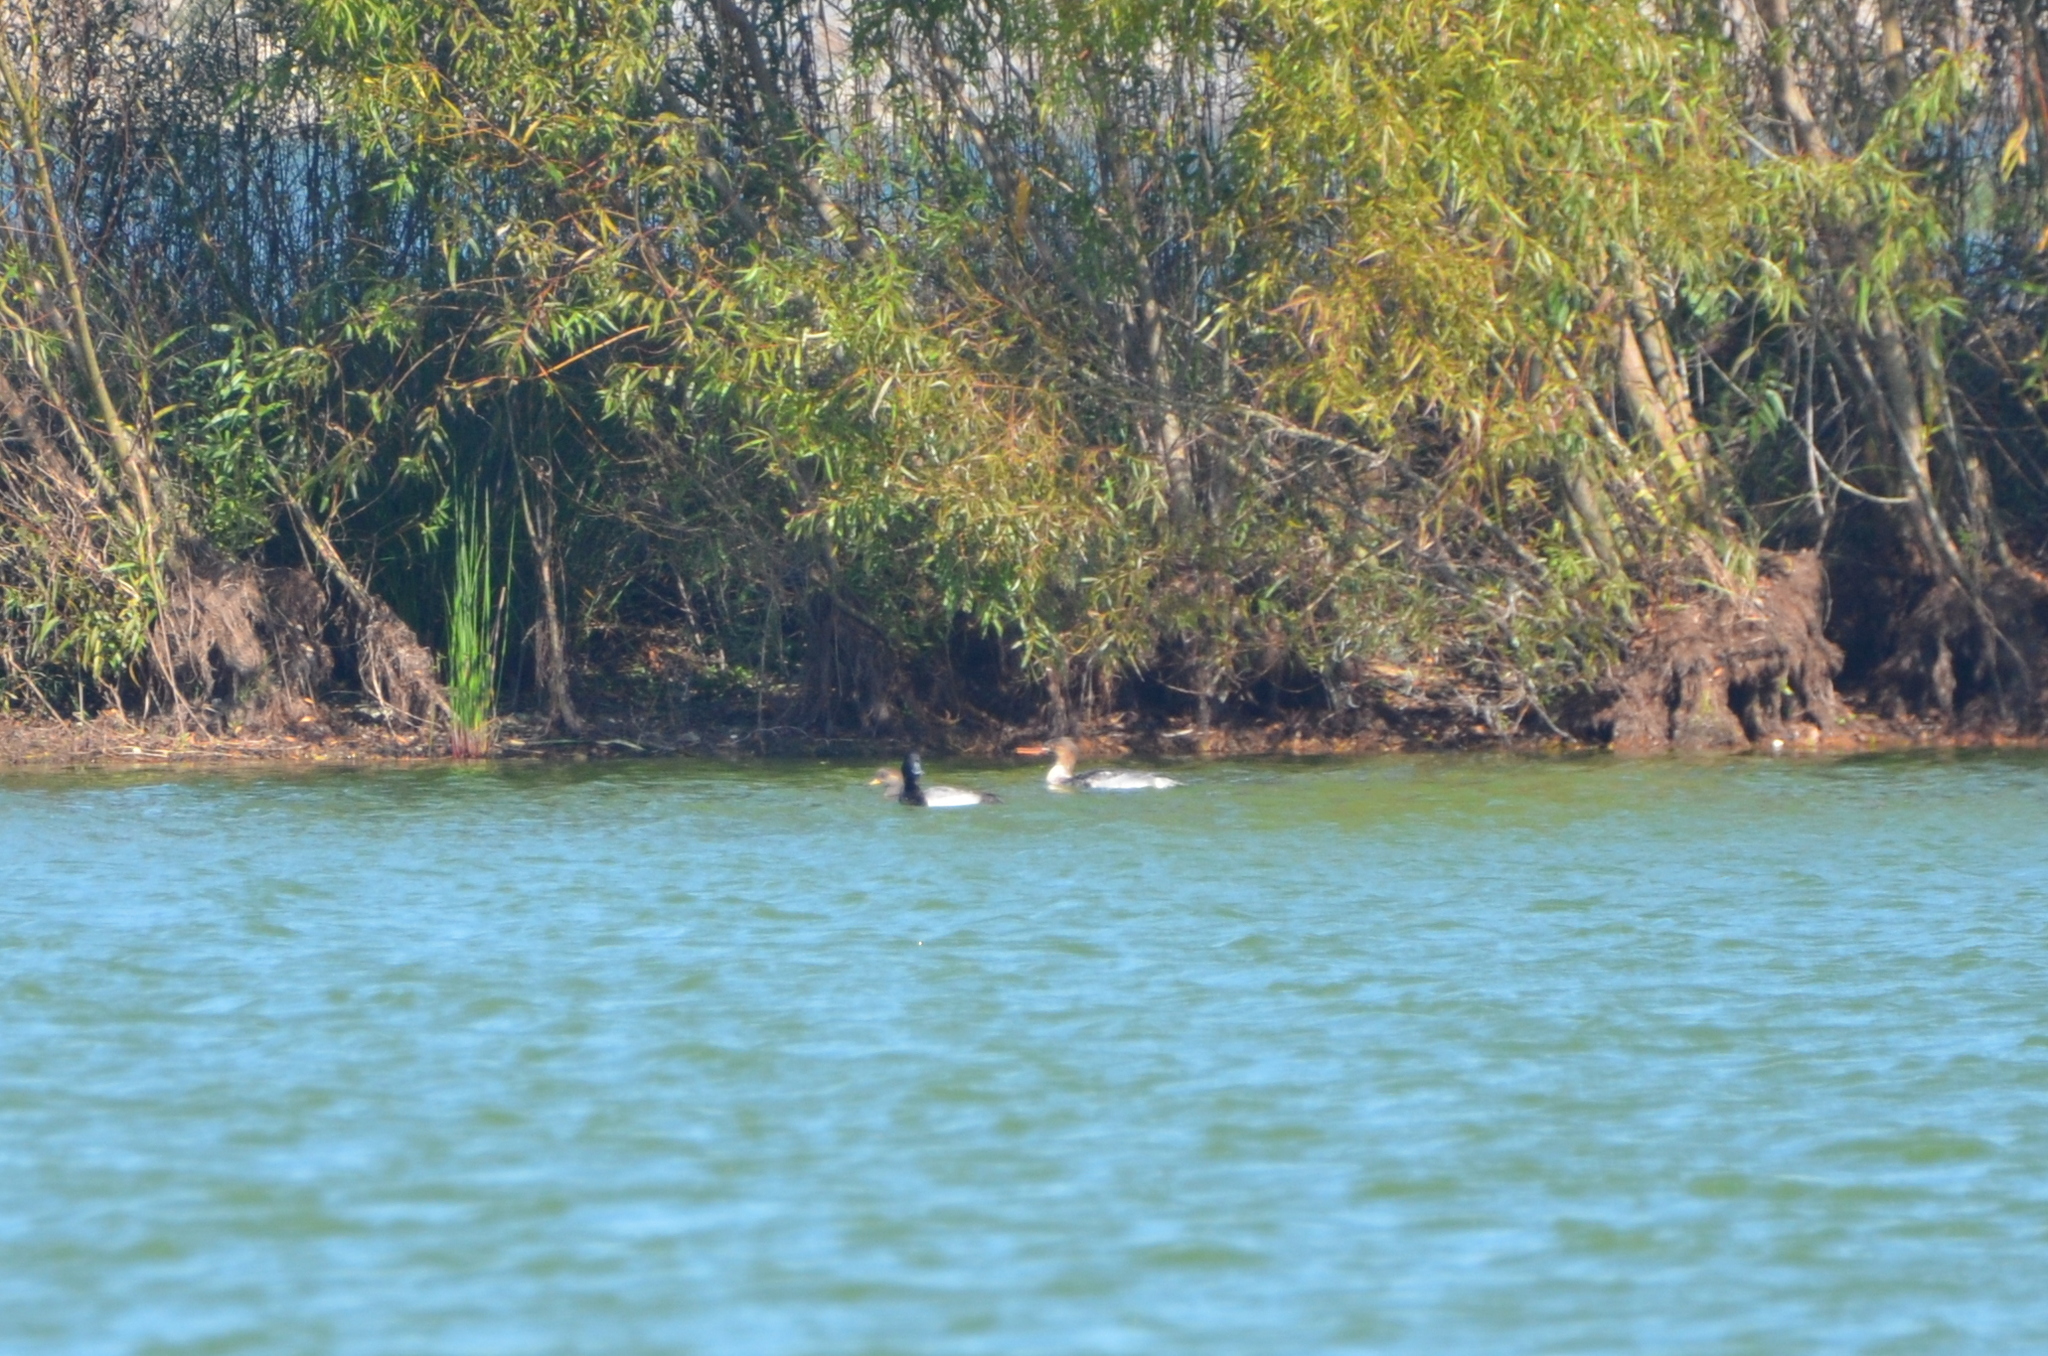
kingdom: Animalia
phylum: Chordata
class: Aves
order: Anseriformes
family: Anatidae
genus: Mergus
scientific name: Mergus serrator
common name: Red-breasted merganser
